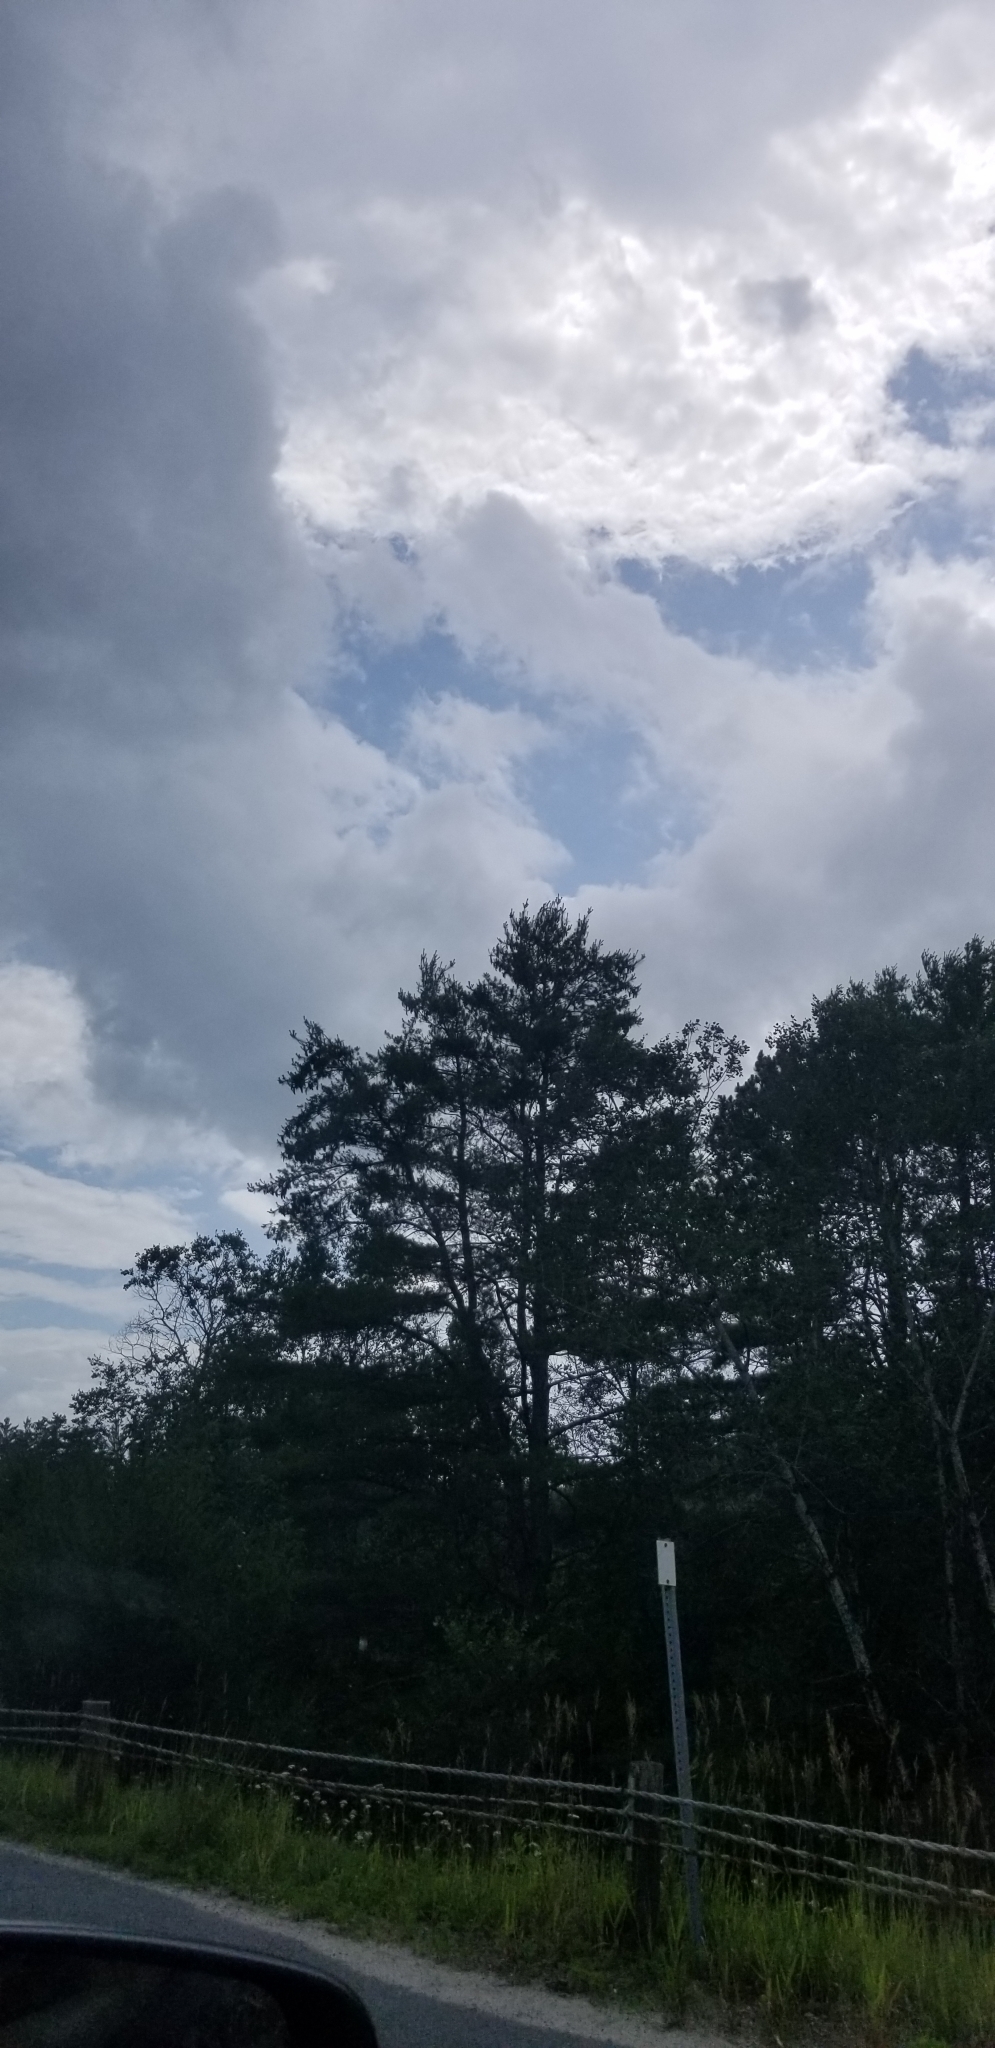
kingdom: Plantae
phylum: Tracheophyta
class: Pinopsida
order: Pinales
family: Pinaceae
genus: Pinus
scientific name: Pinus strobus
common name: Weymouth pine
